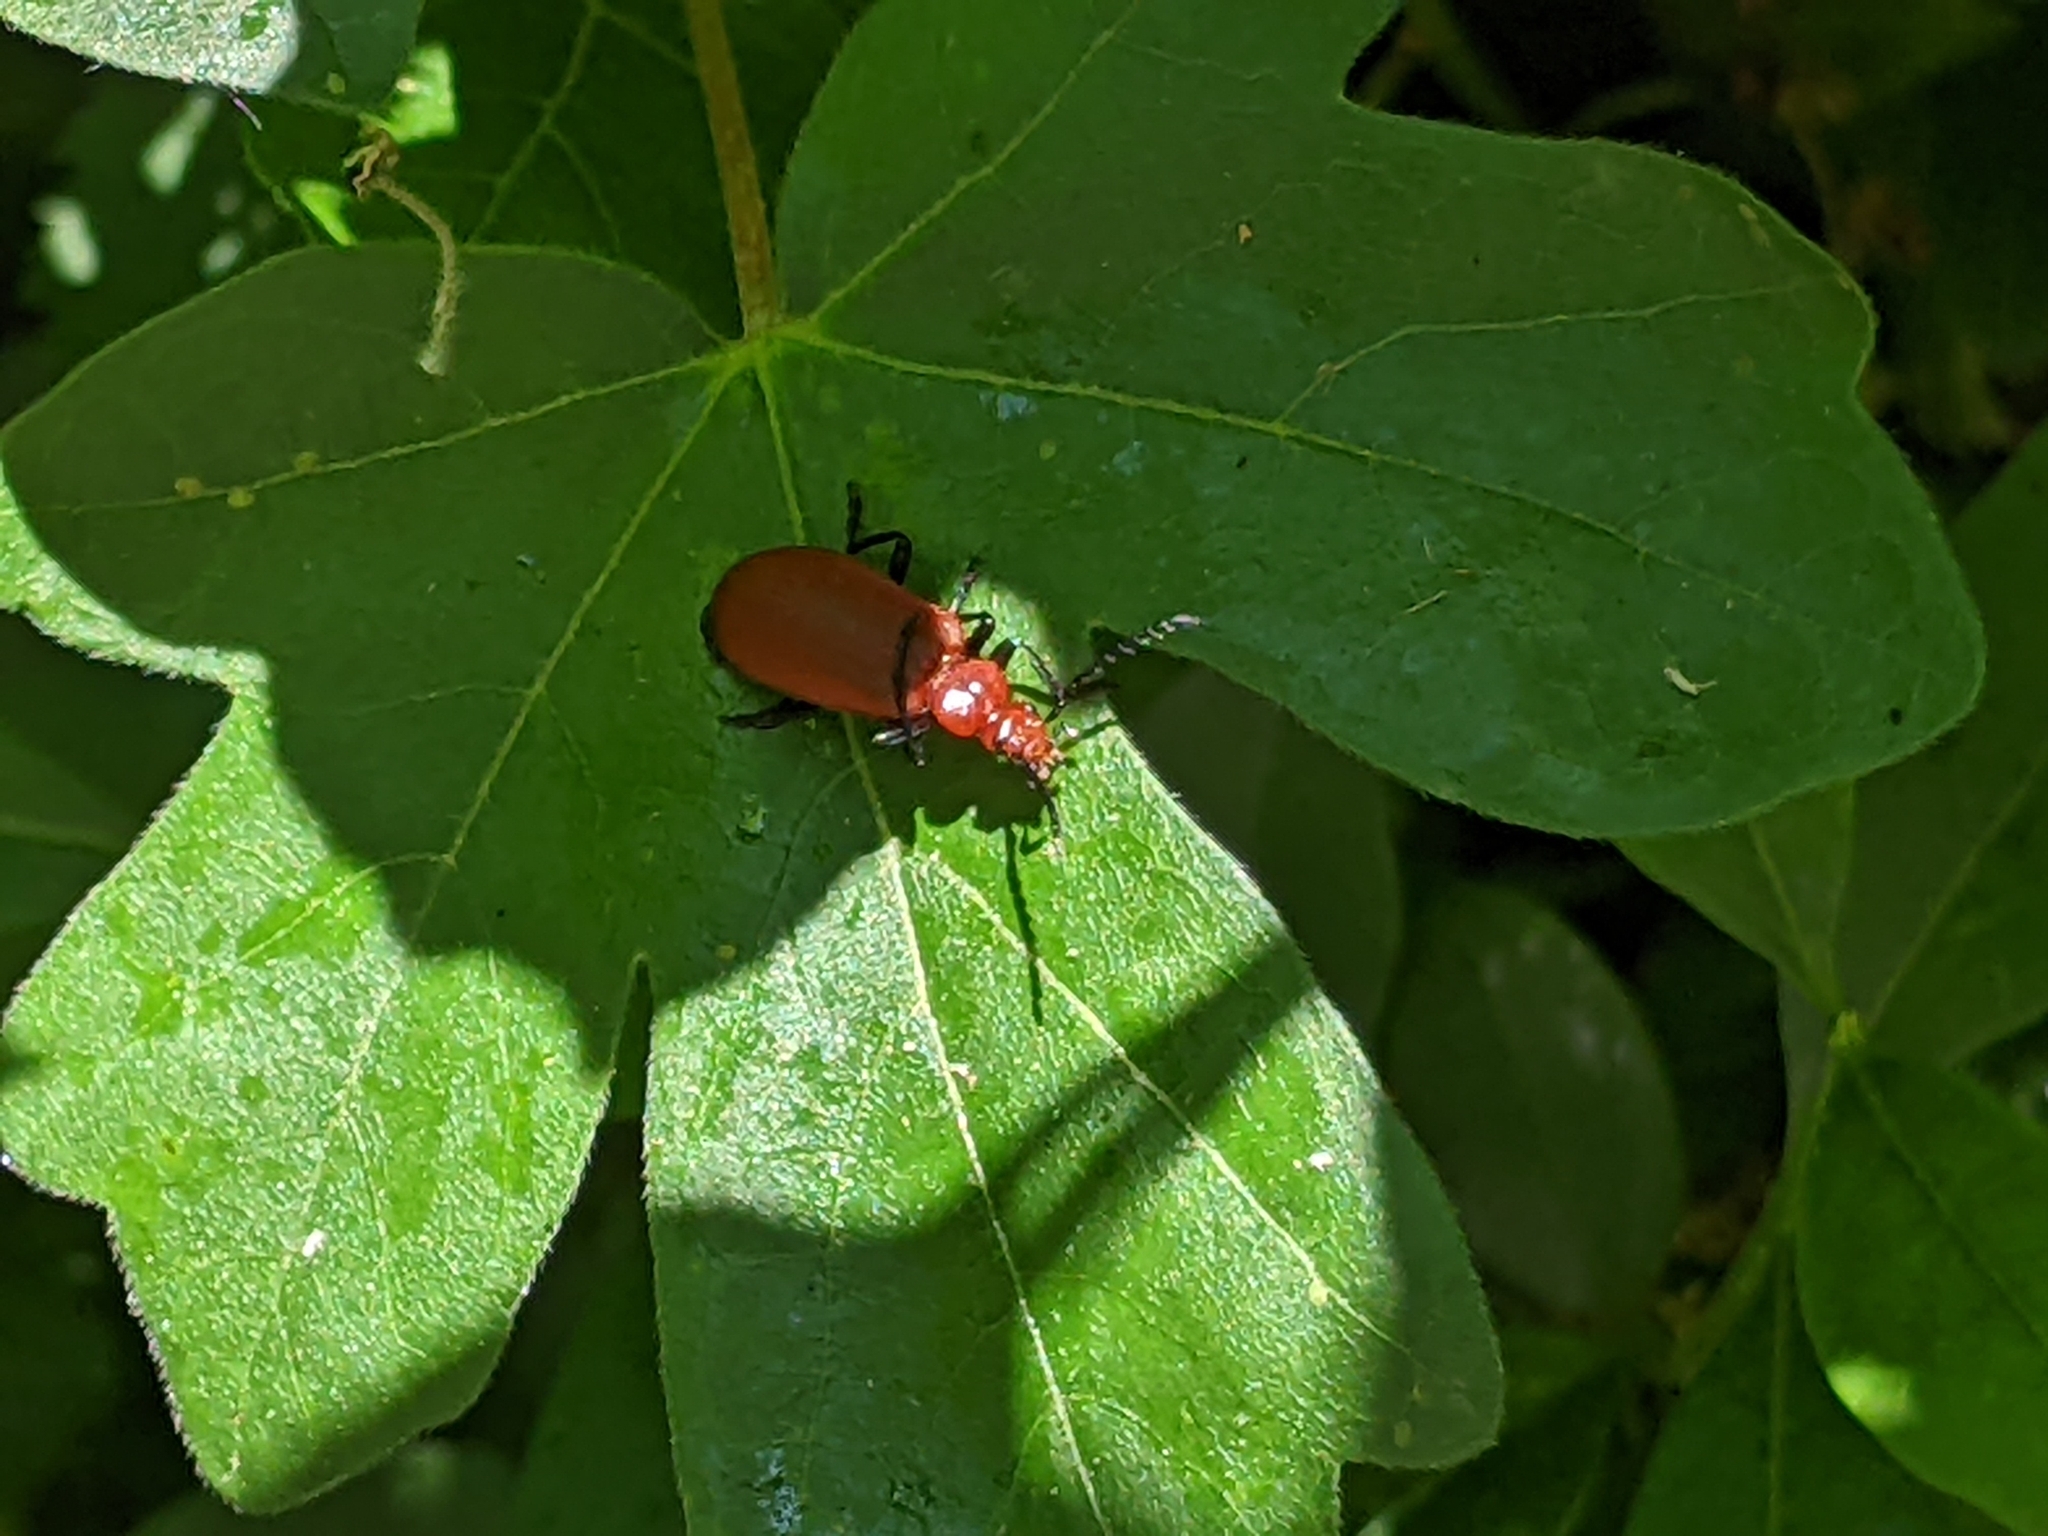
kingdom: Animalia
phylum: Arthropoda
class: Insecta
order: Coleoptera
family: Pyrochroidae
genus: Pyrochroa
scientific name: Pyrochroa serraticornis
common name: Red-headed cardinal beetle
